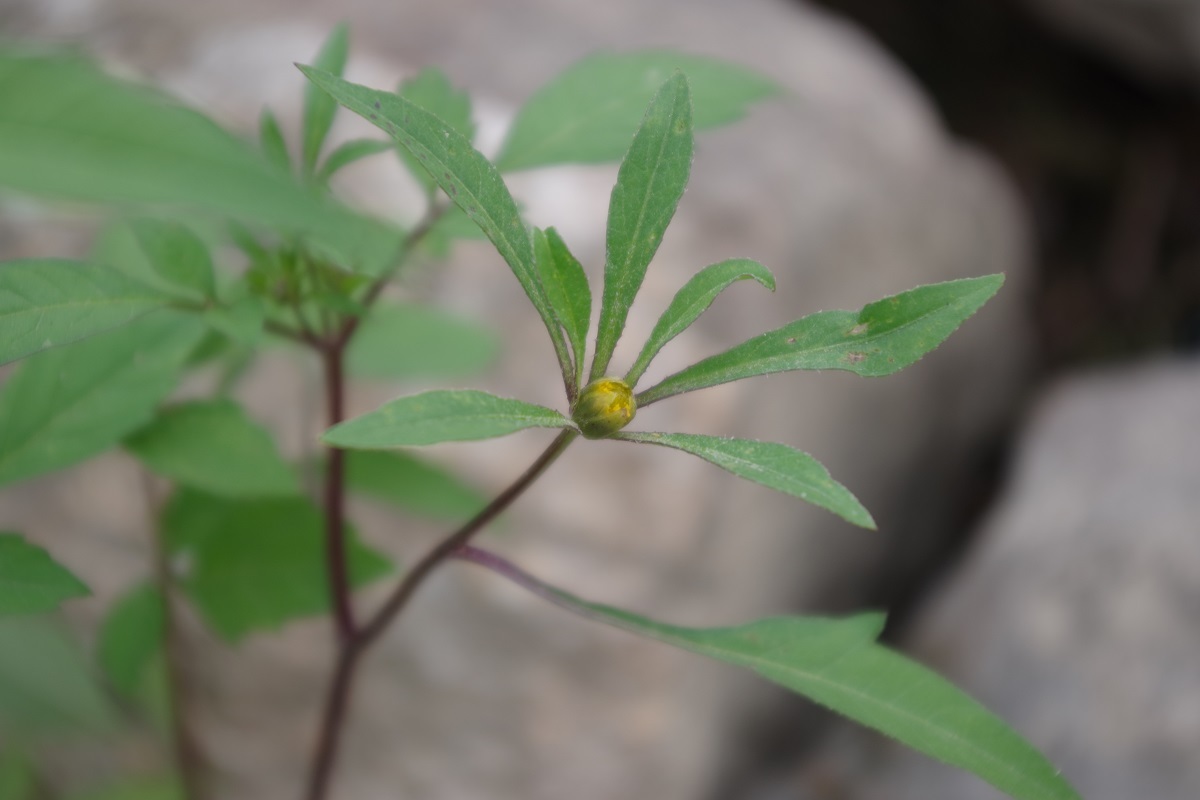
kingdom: Plantae
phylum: Tracheophyta
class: Magnoliopsida
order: Asterales
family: Asteraceae
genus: Bidens
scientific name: Bidens frondosa
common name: Beggarticks
